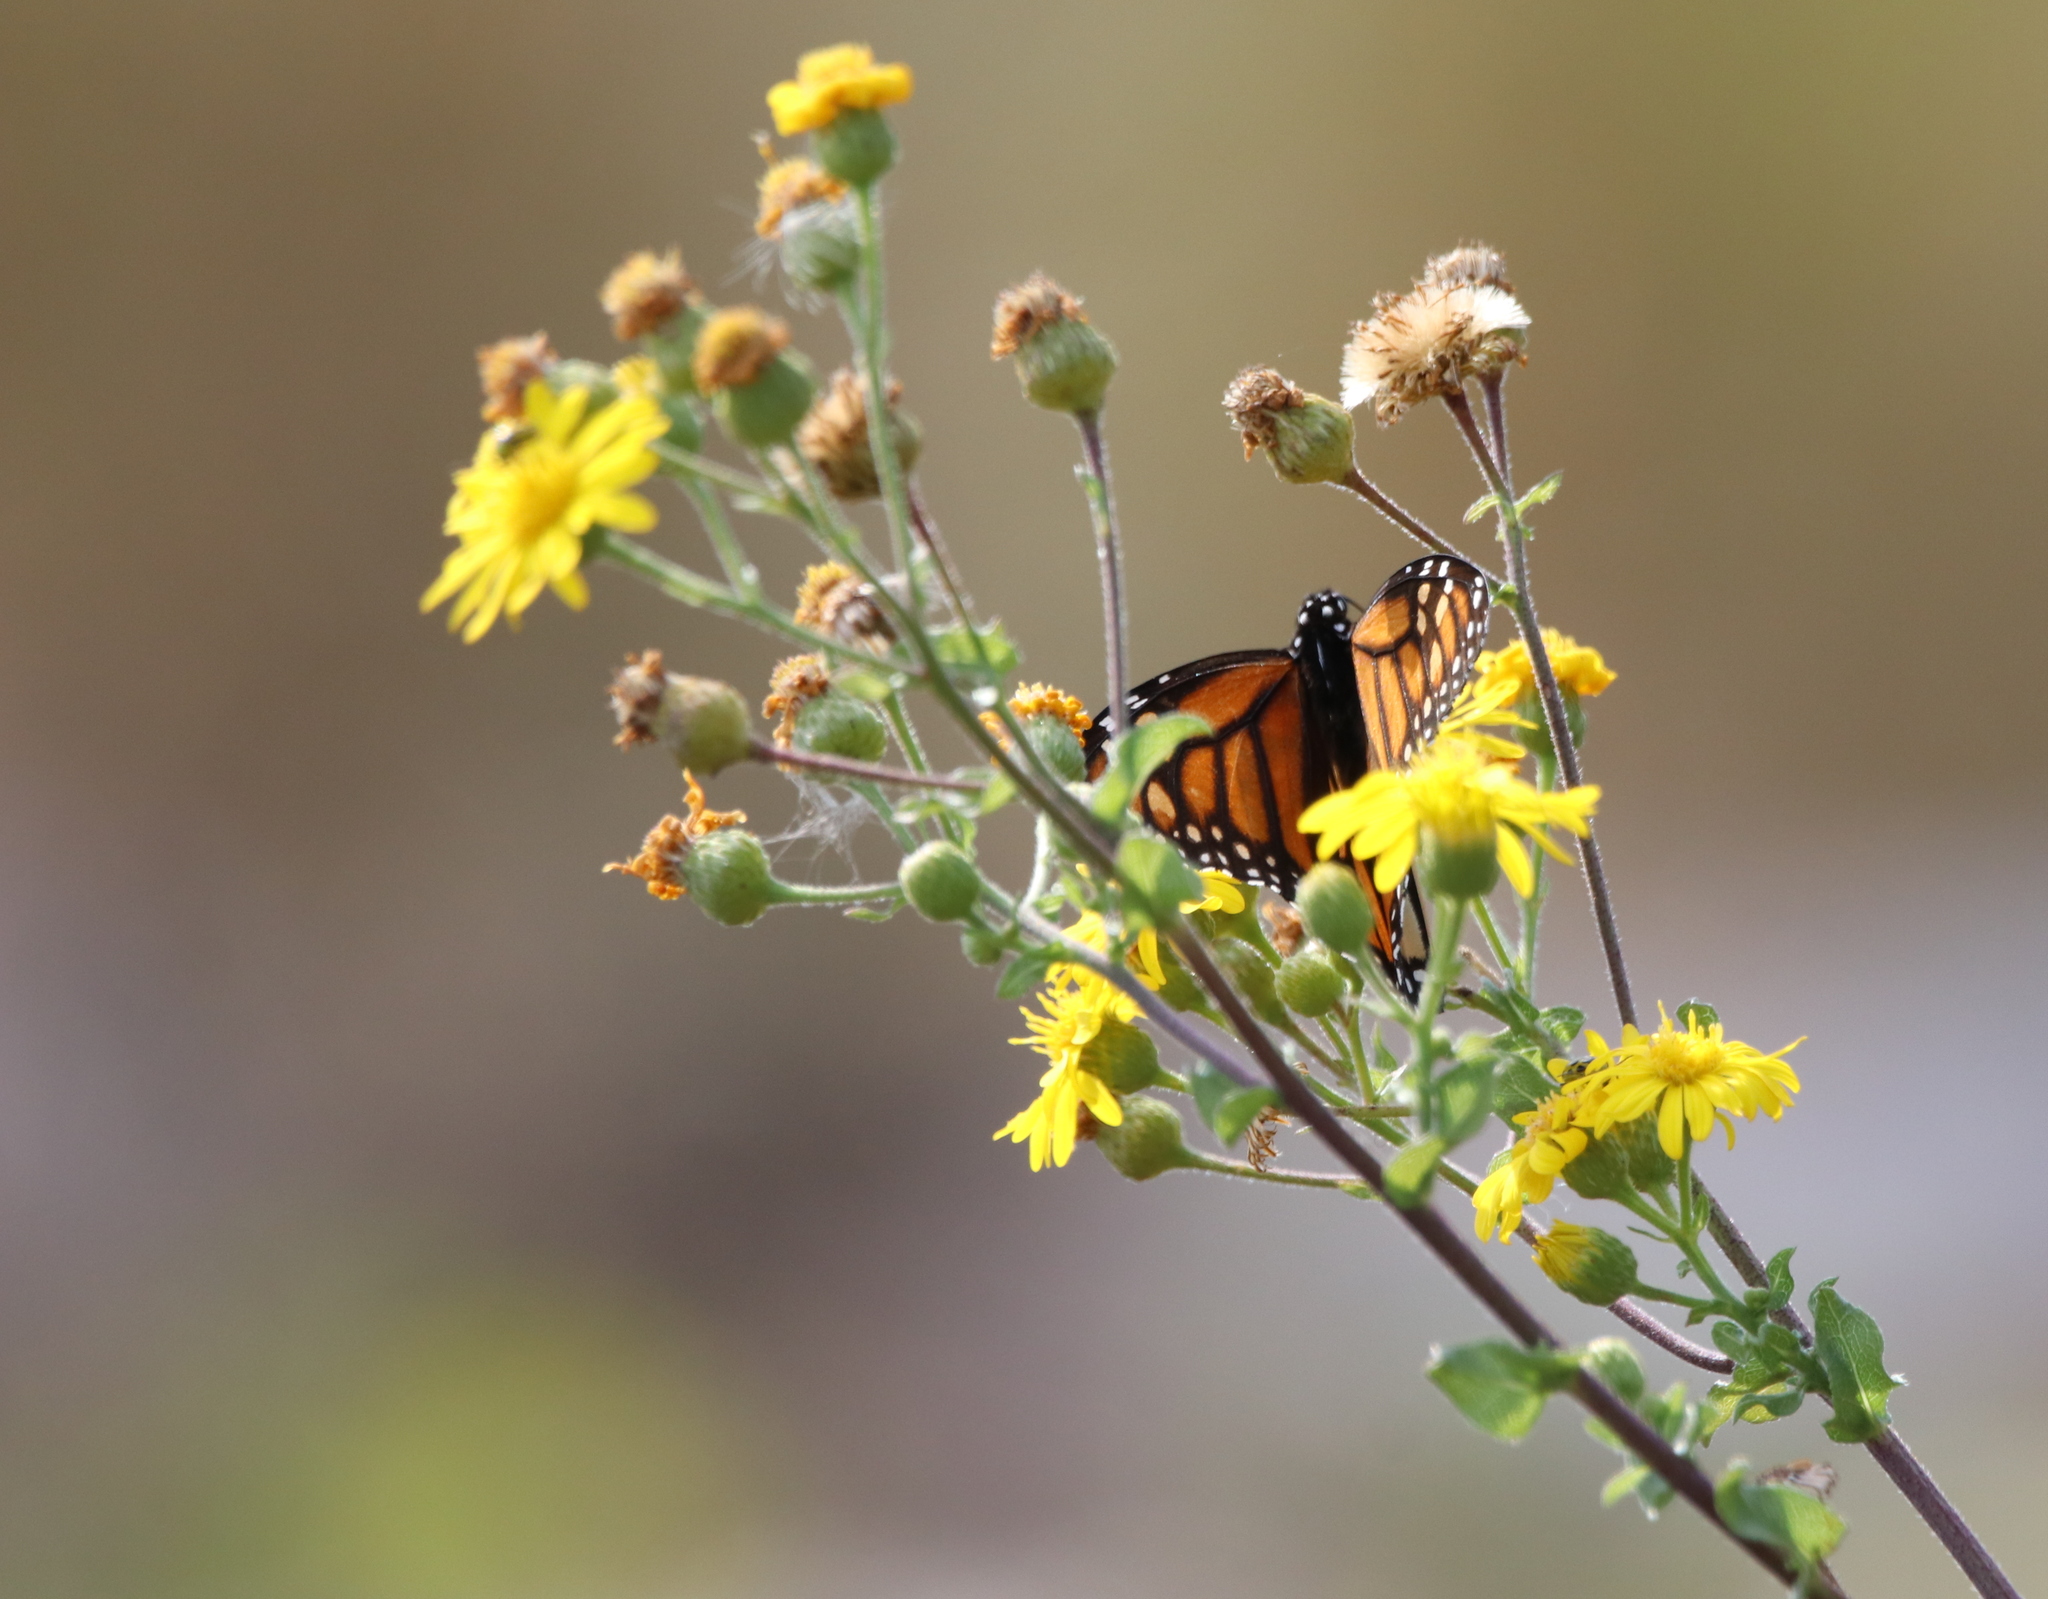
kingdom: Animalia
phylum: Arthropoda
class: Insecta
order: Lepidoptera
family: Nymphalidae
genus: Danaus
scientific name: Danaus plexippus
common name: Monarch
